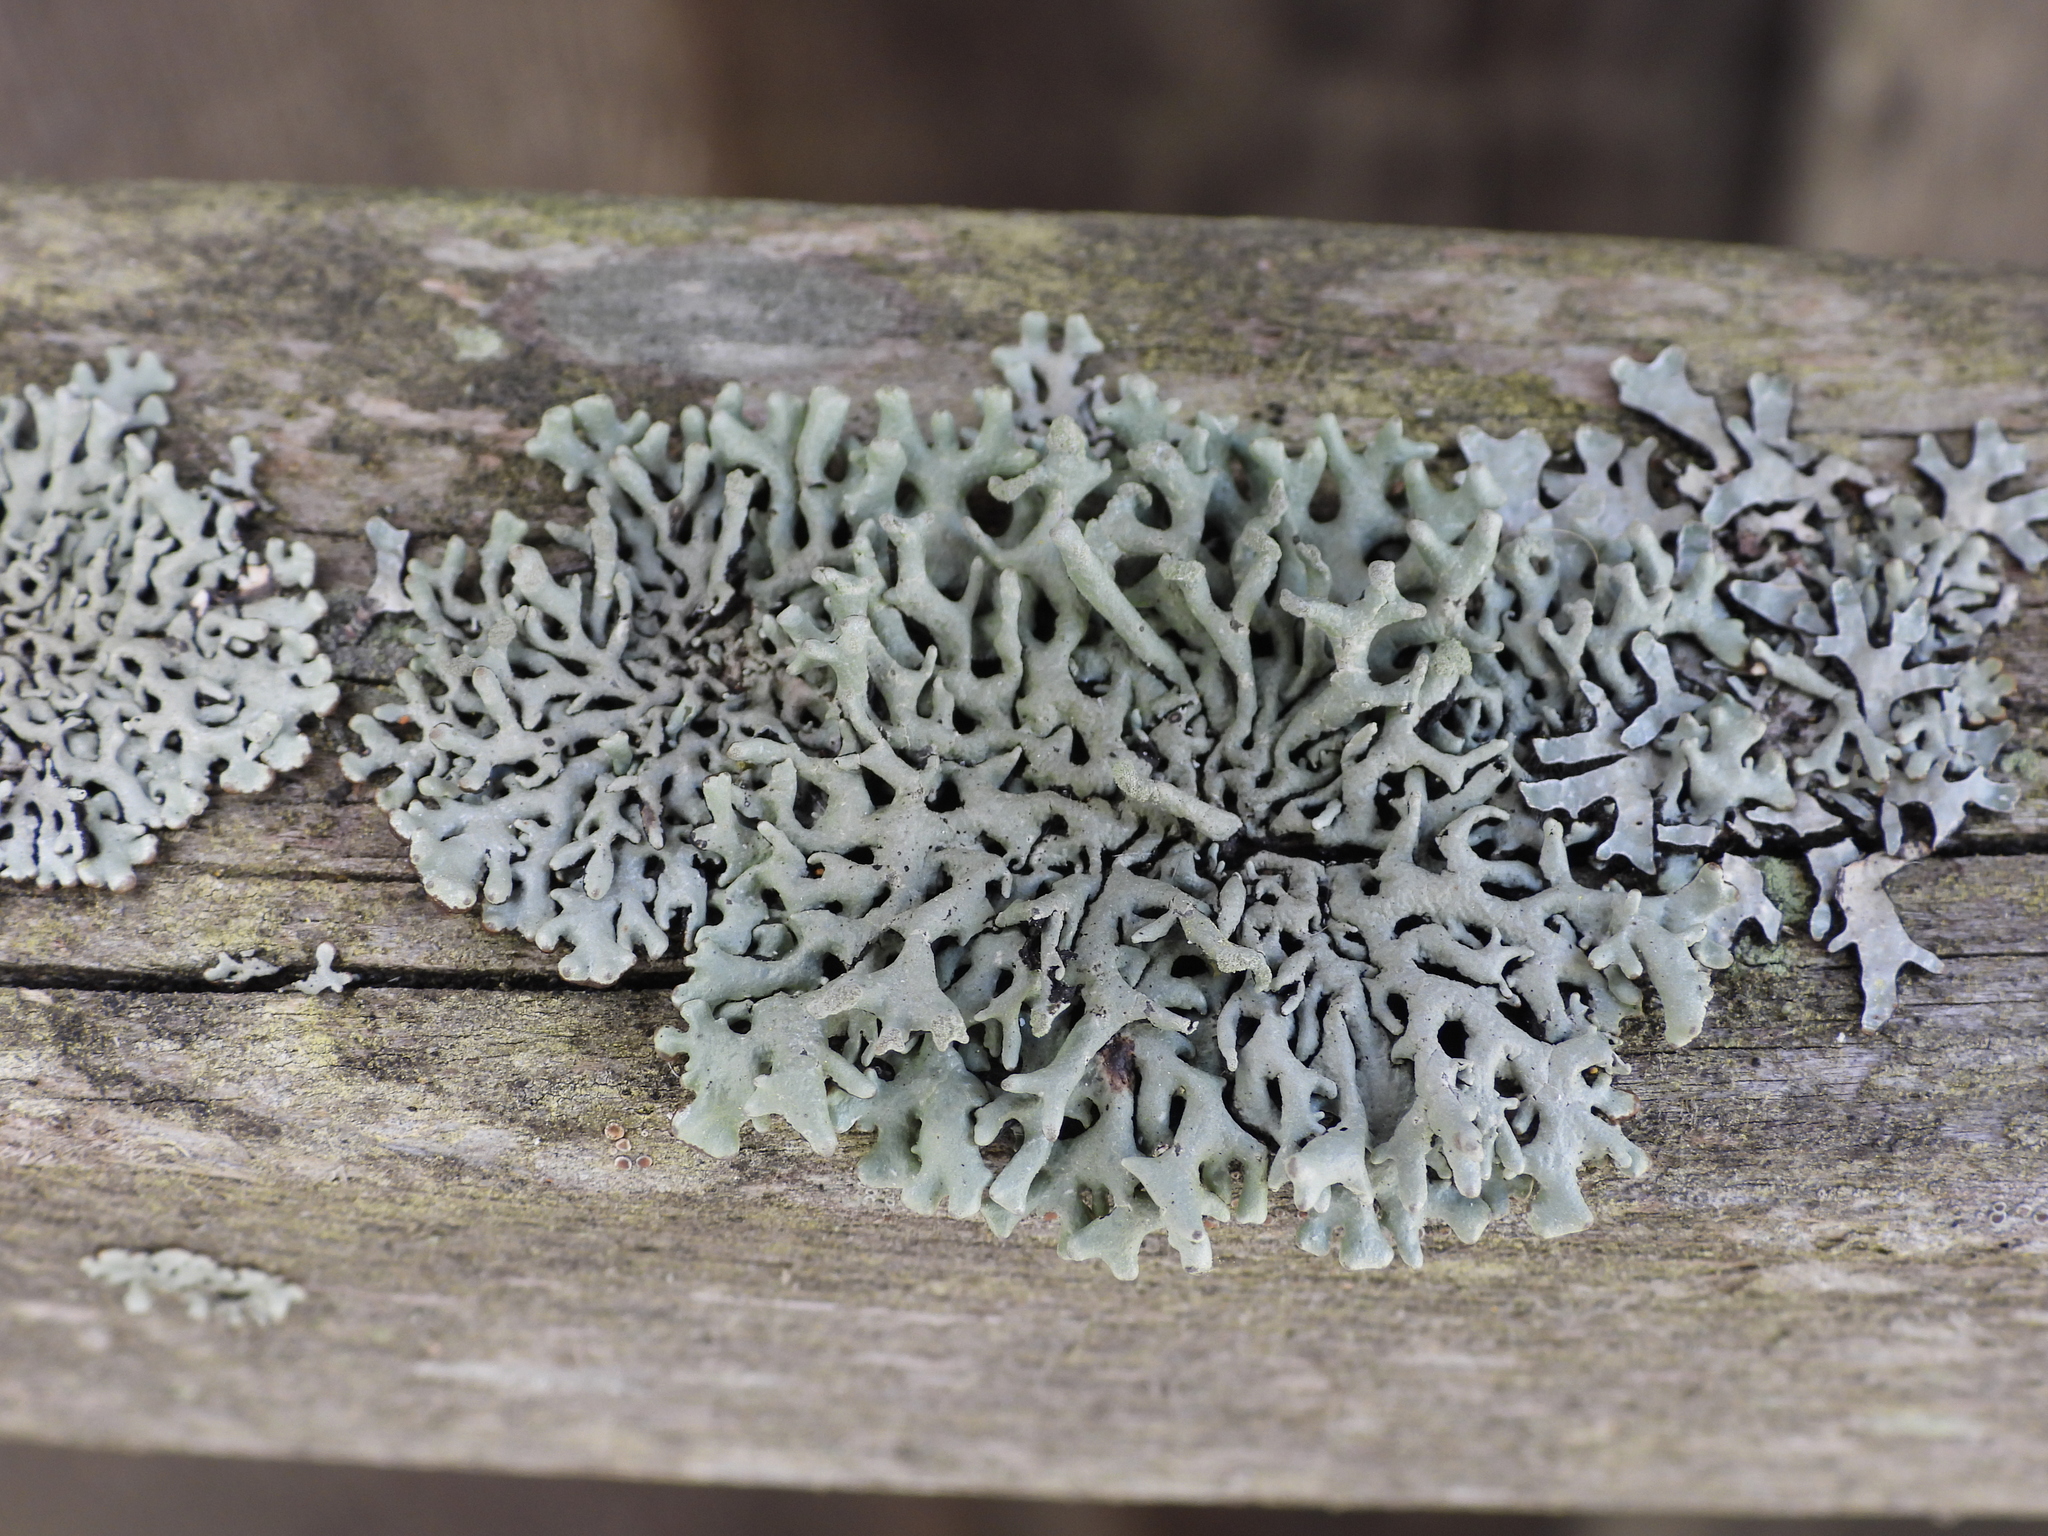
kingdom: Fungi
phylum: Ascomycota
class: Lecanoromycetes
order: Lecanorales
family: Parmeliaceae
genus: Hypogymnia
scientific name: Hypogymnia tubulosa
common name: Powder-headed tube lichen
